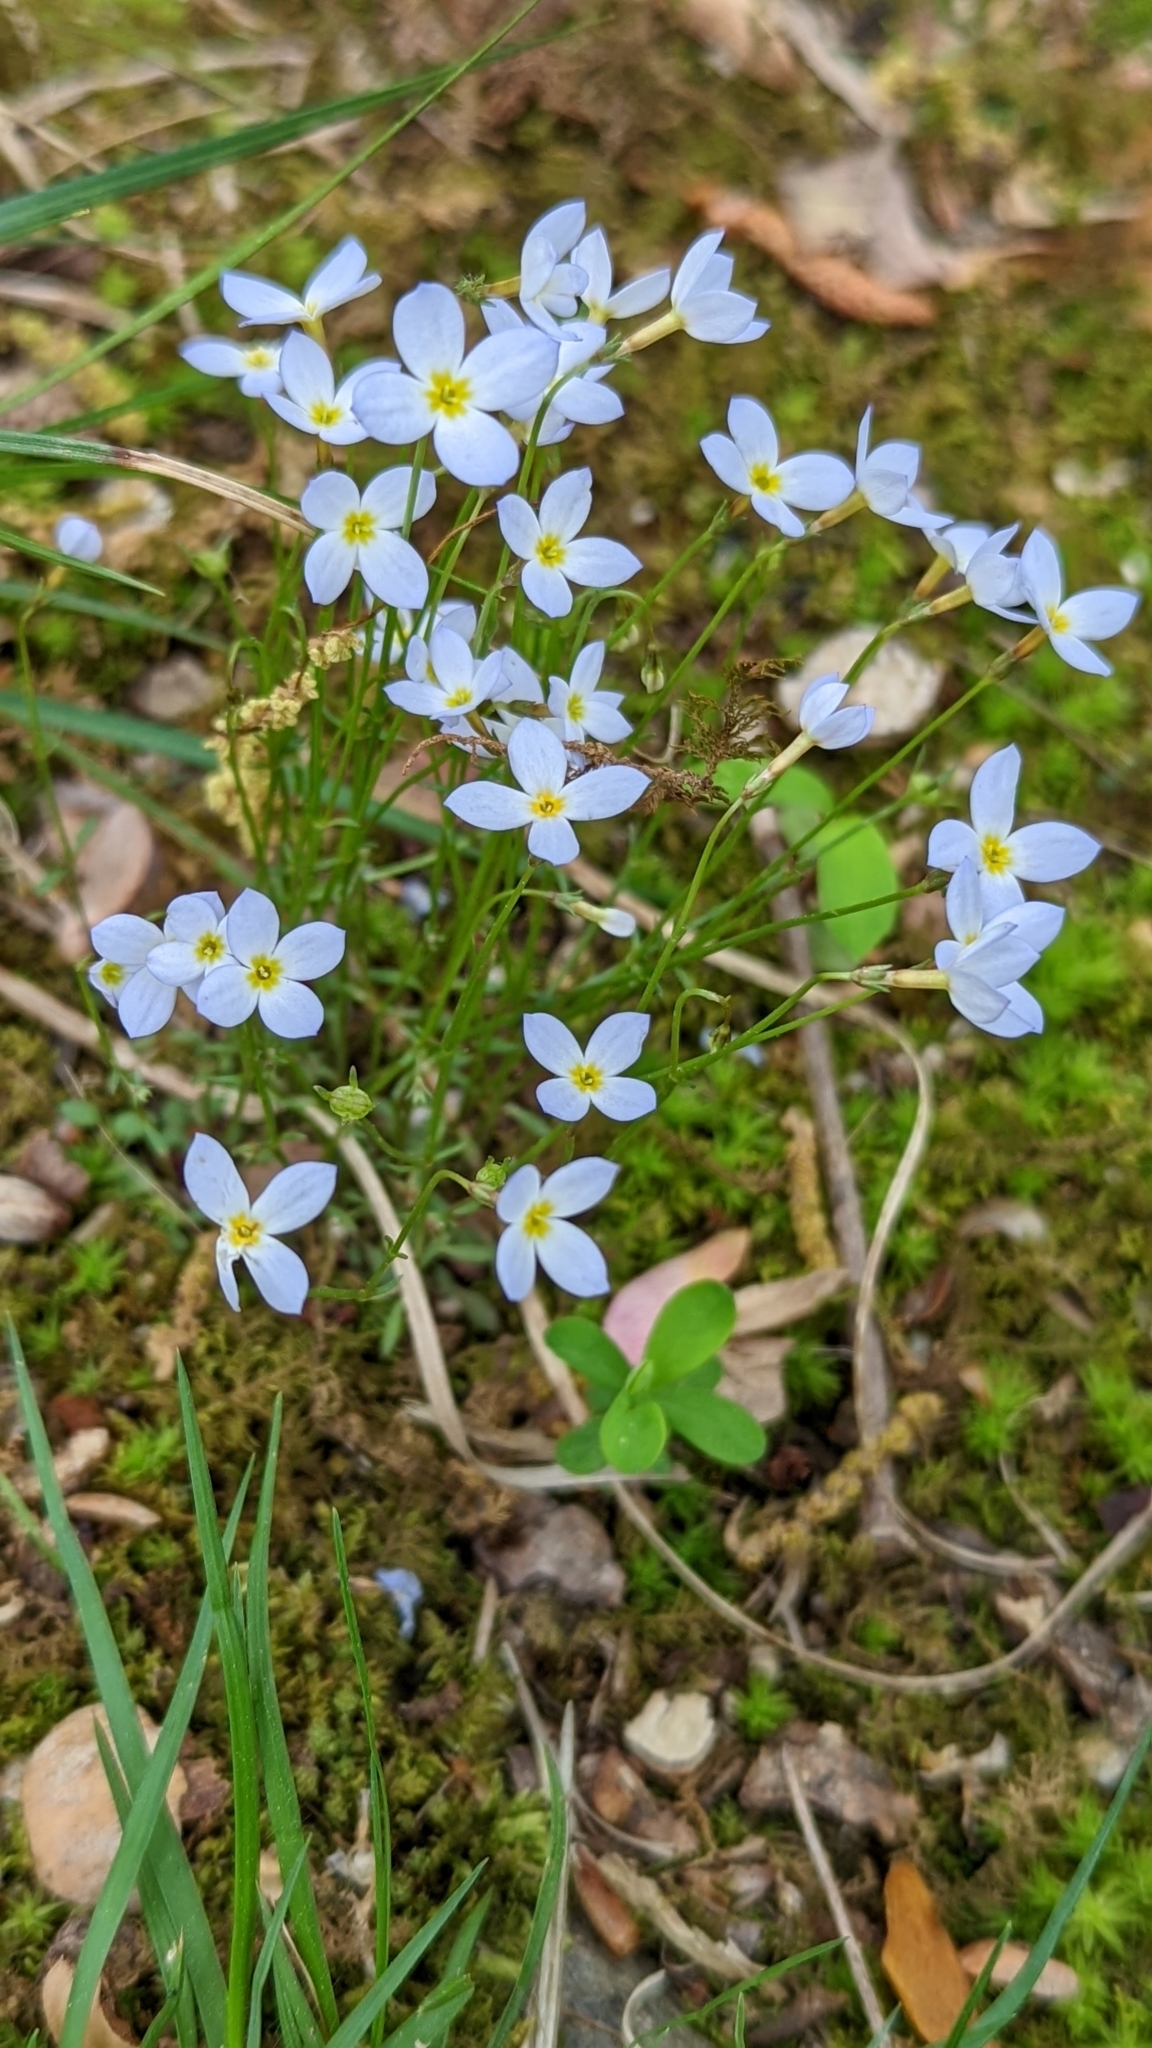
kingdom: Plantae
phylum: Tracheophyta
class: Magnoliopsida
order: Gentianales
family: Rubiaceae
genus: Houstonia
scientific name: Houstonia caerulea
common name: Bluets
